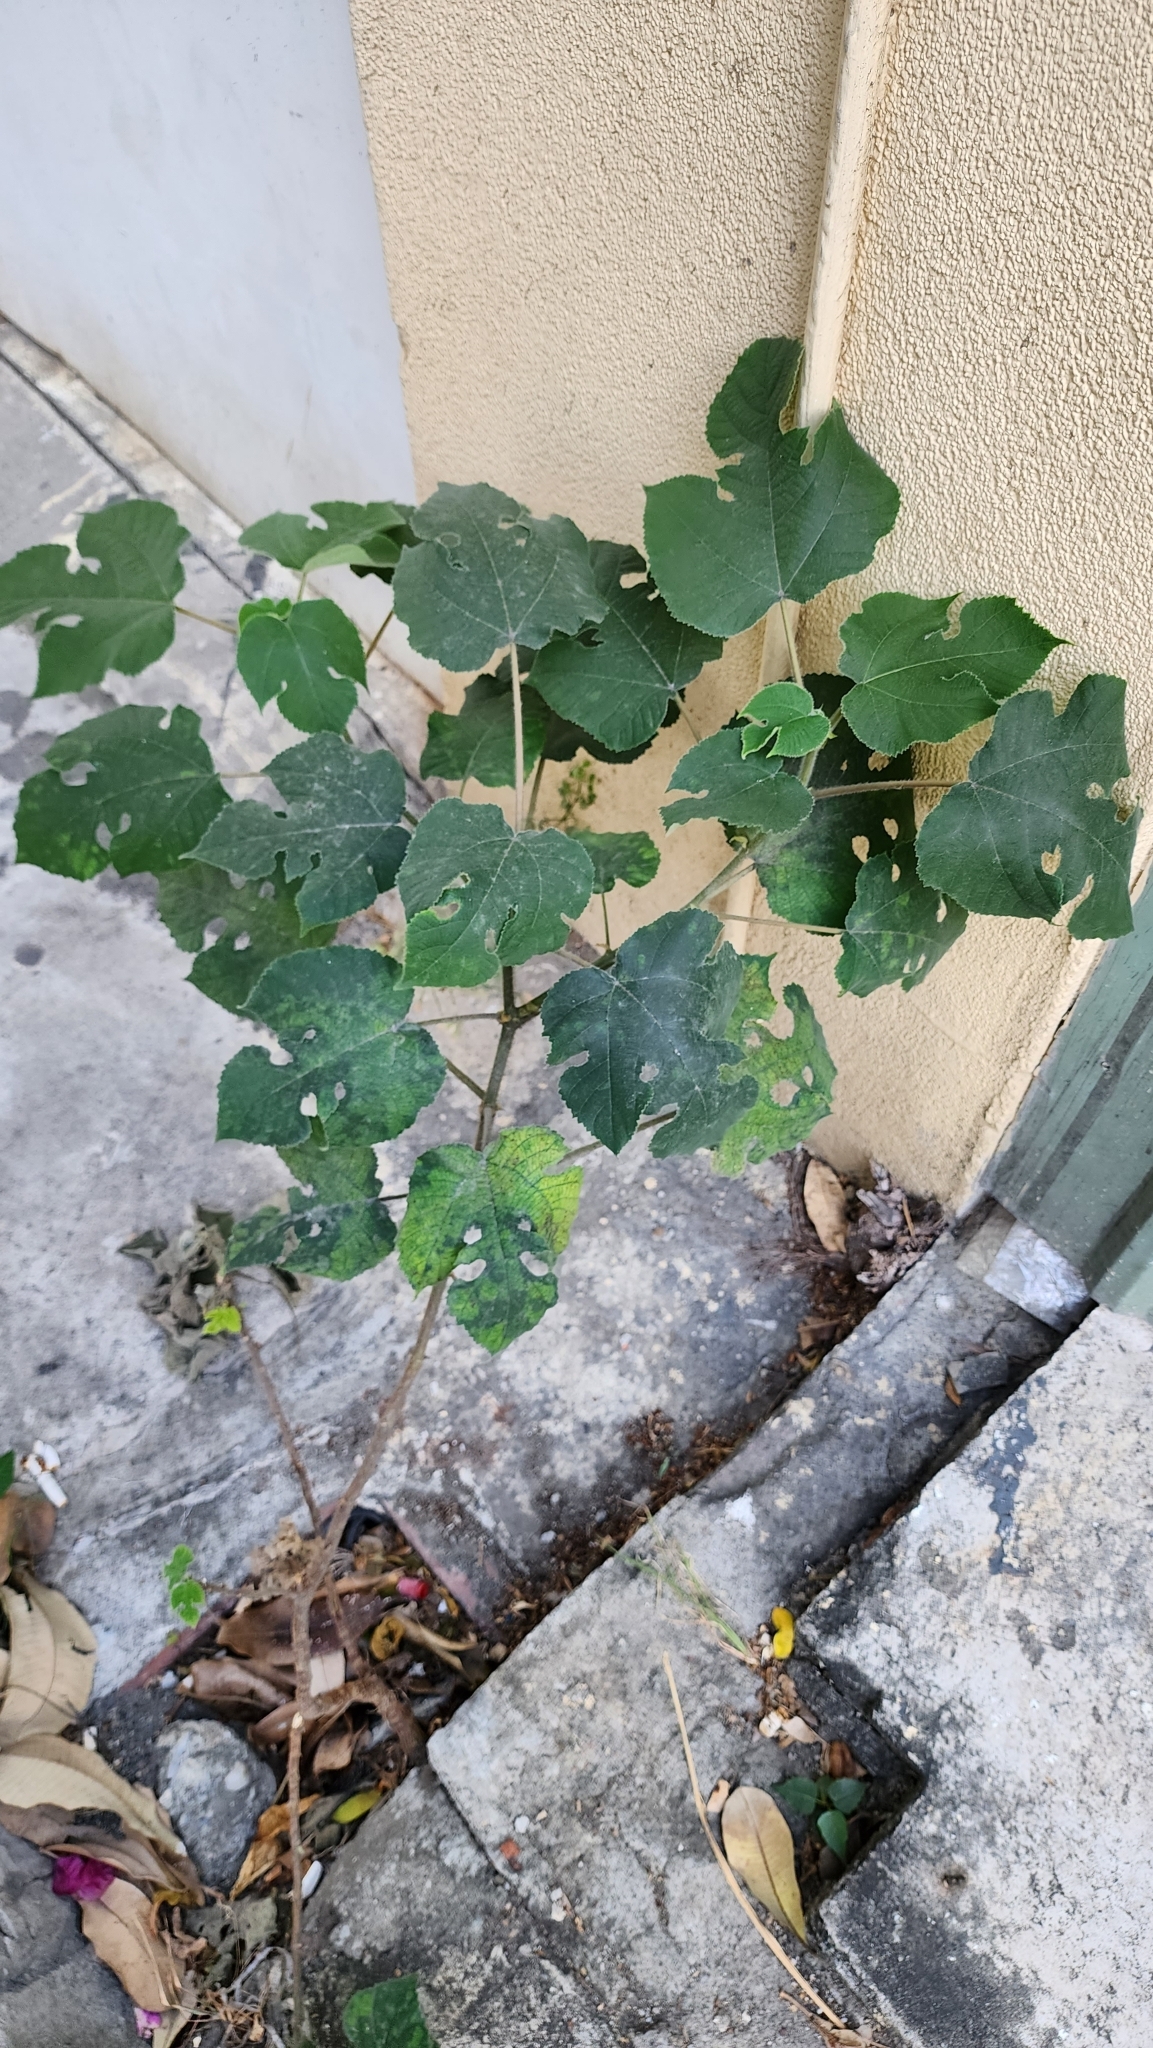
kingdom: Plantae
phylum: Tracheophyta
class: Magnoliopsida
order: Rosales
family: Moraceae
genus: Broussonetia
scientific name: Broussonetia papyrifera
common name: Paper mulberry
